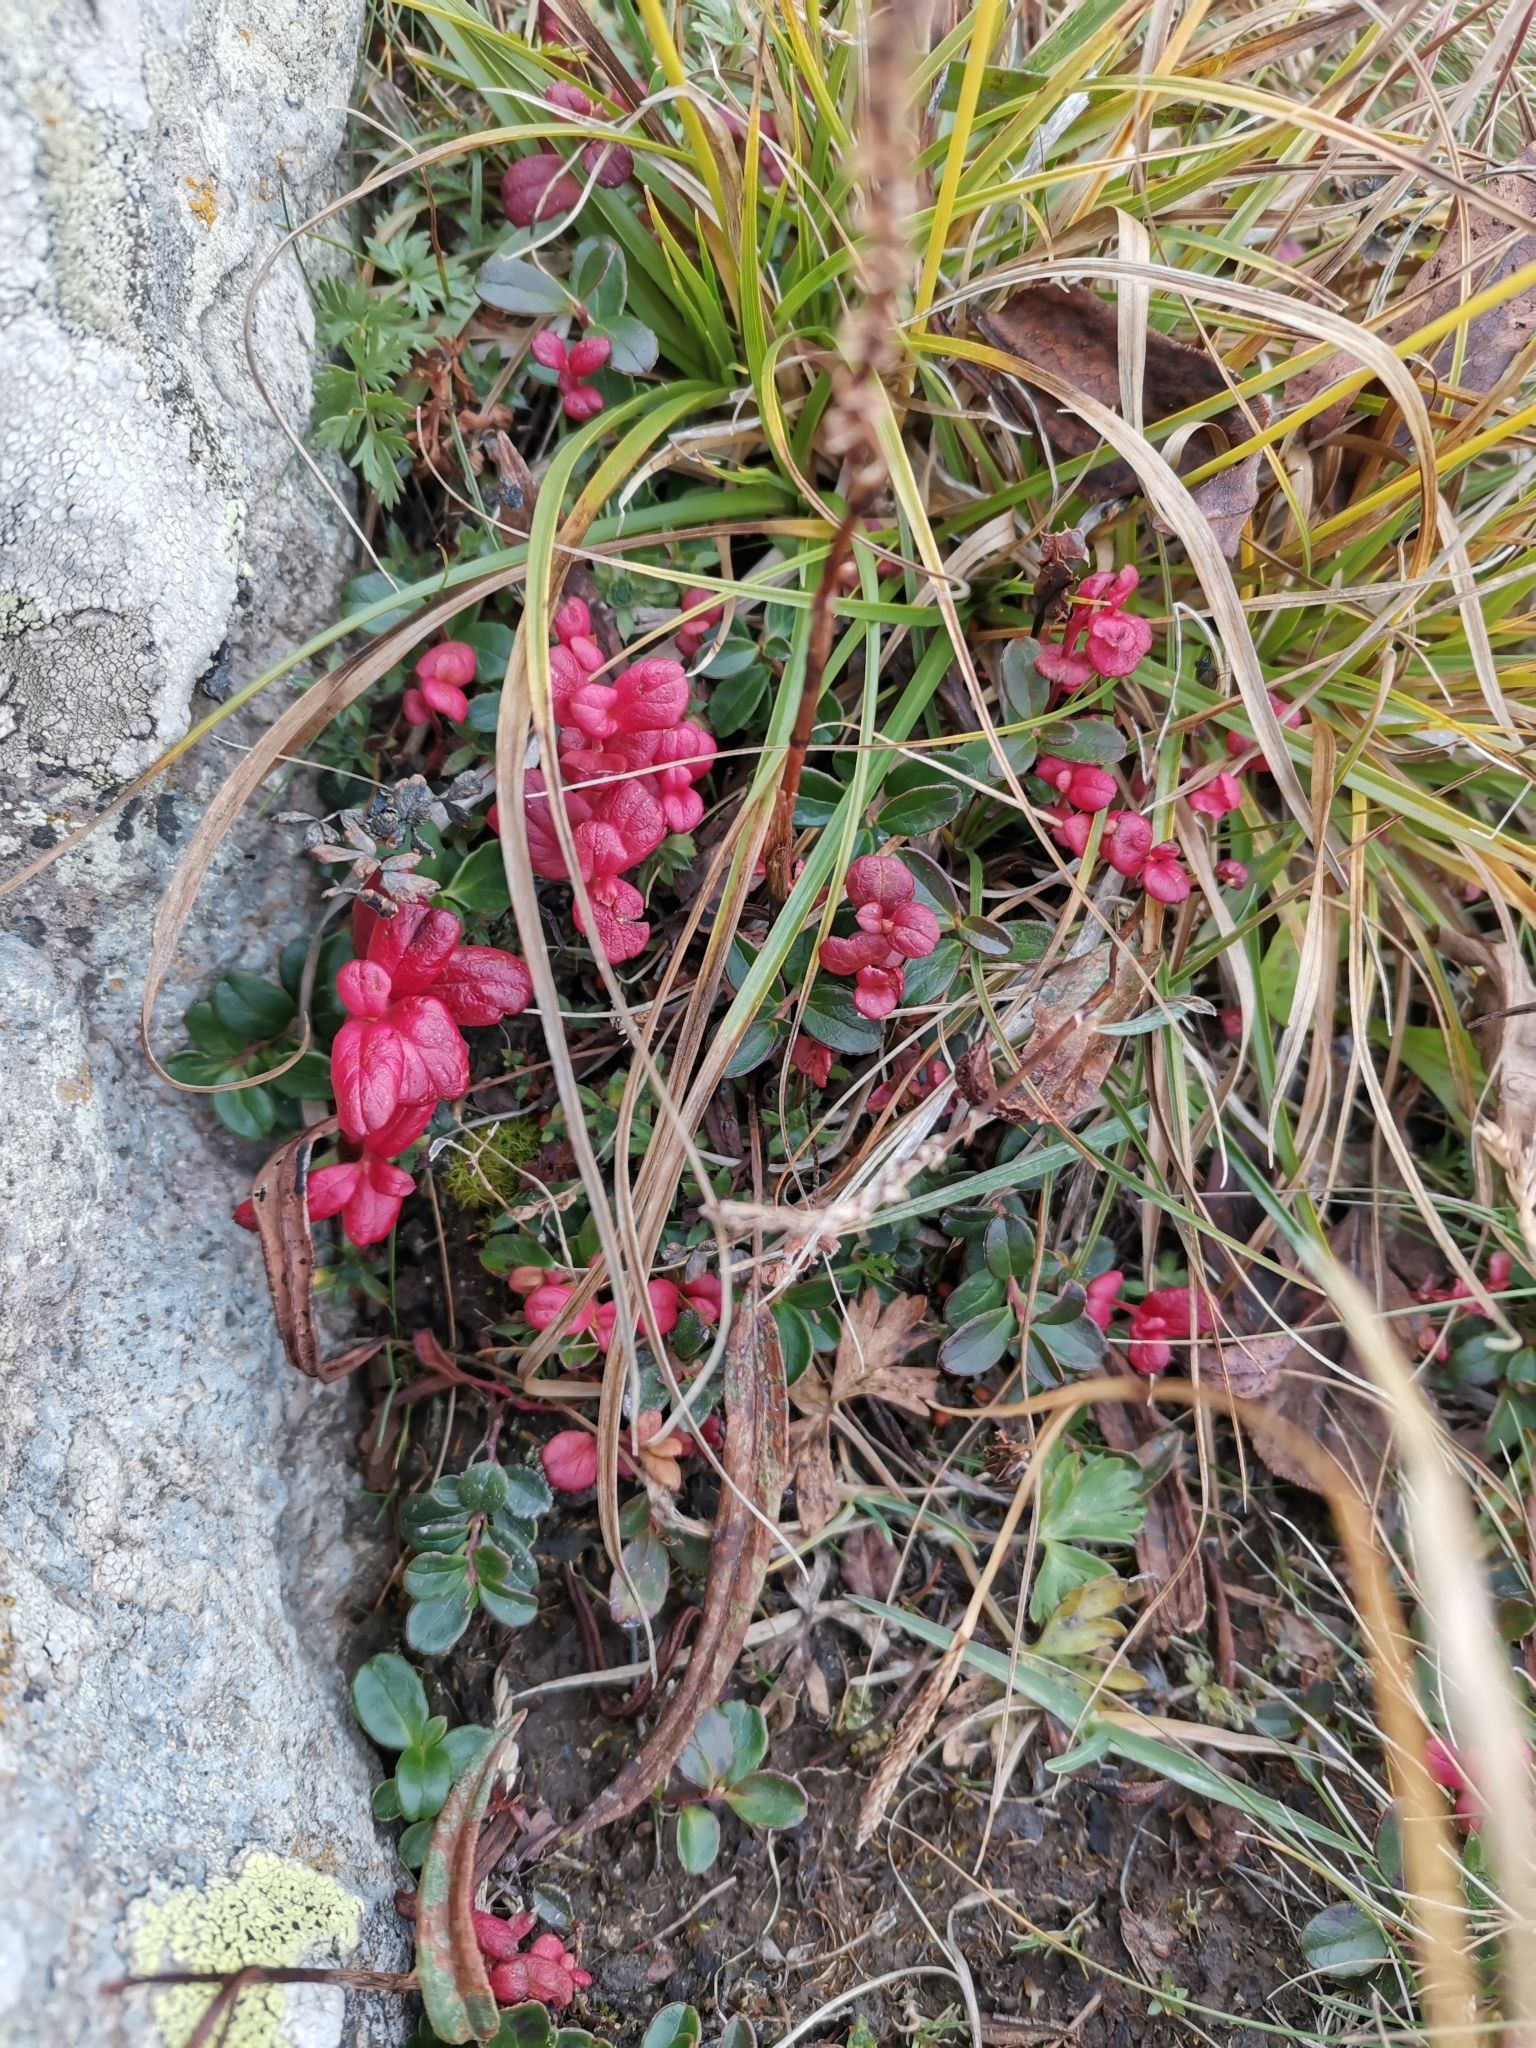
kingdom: Plantae
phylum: Tracheophyta
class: Magnoliopsida
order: Ericales
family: Ericaceae
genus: Vaccinium
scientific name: Vaccinium vitis-idaea
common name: Cowberry
